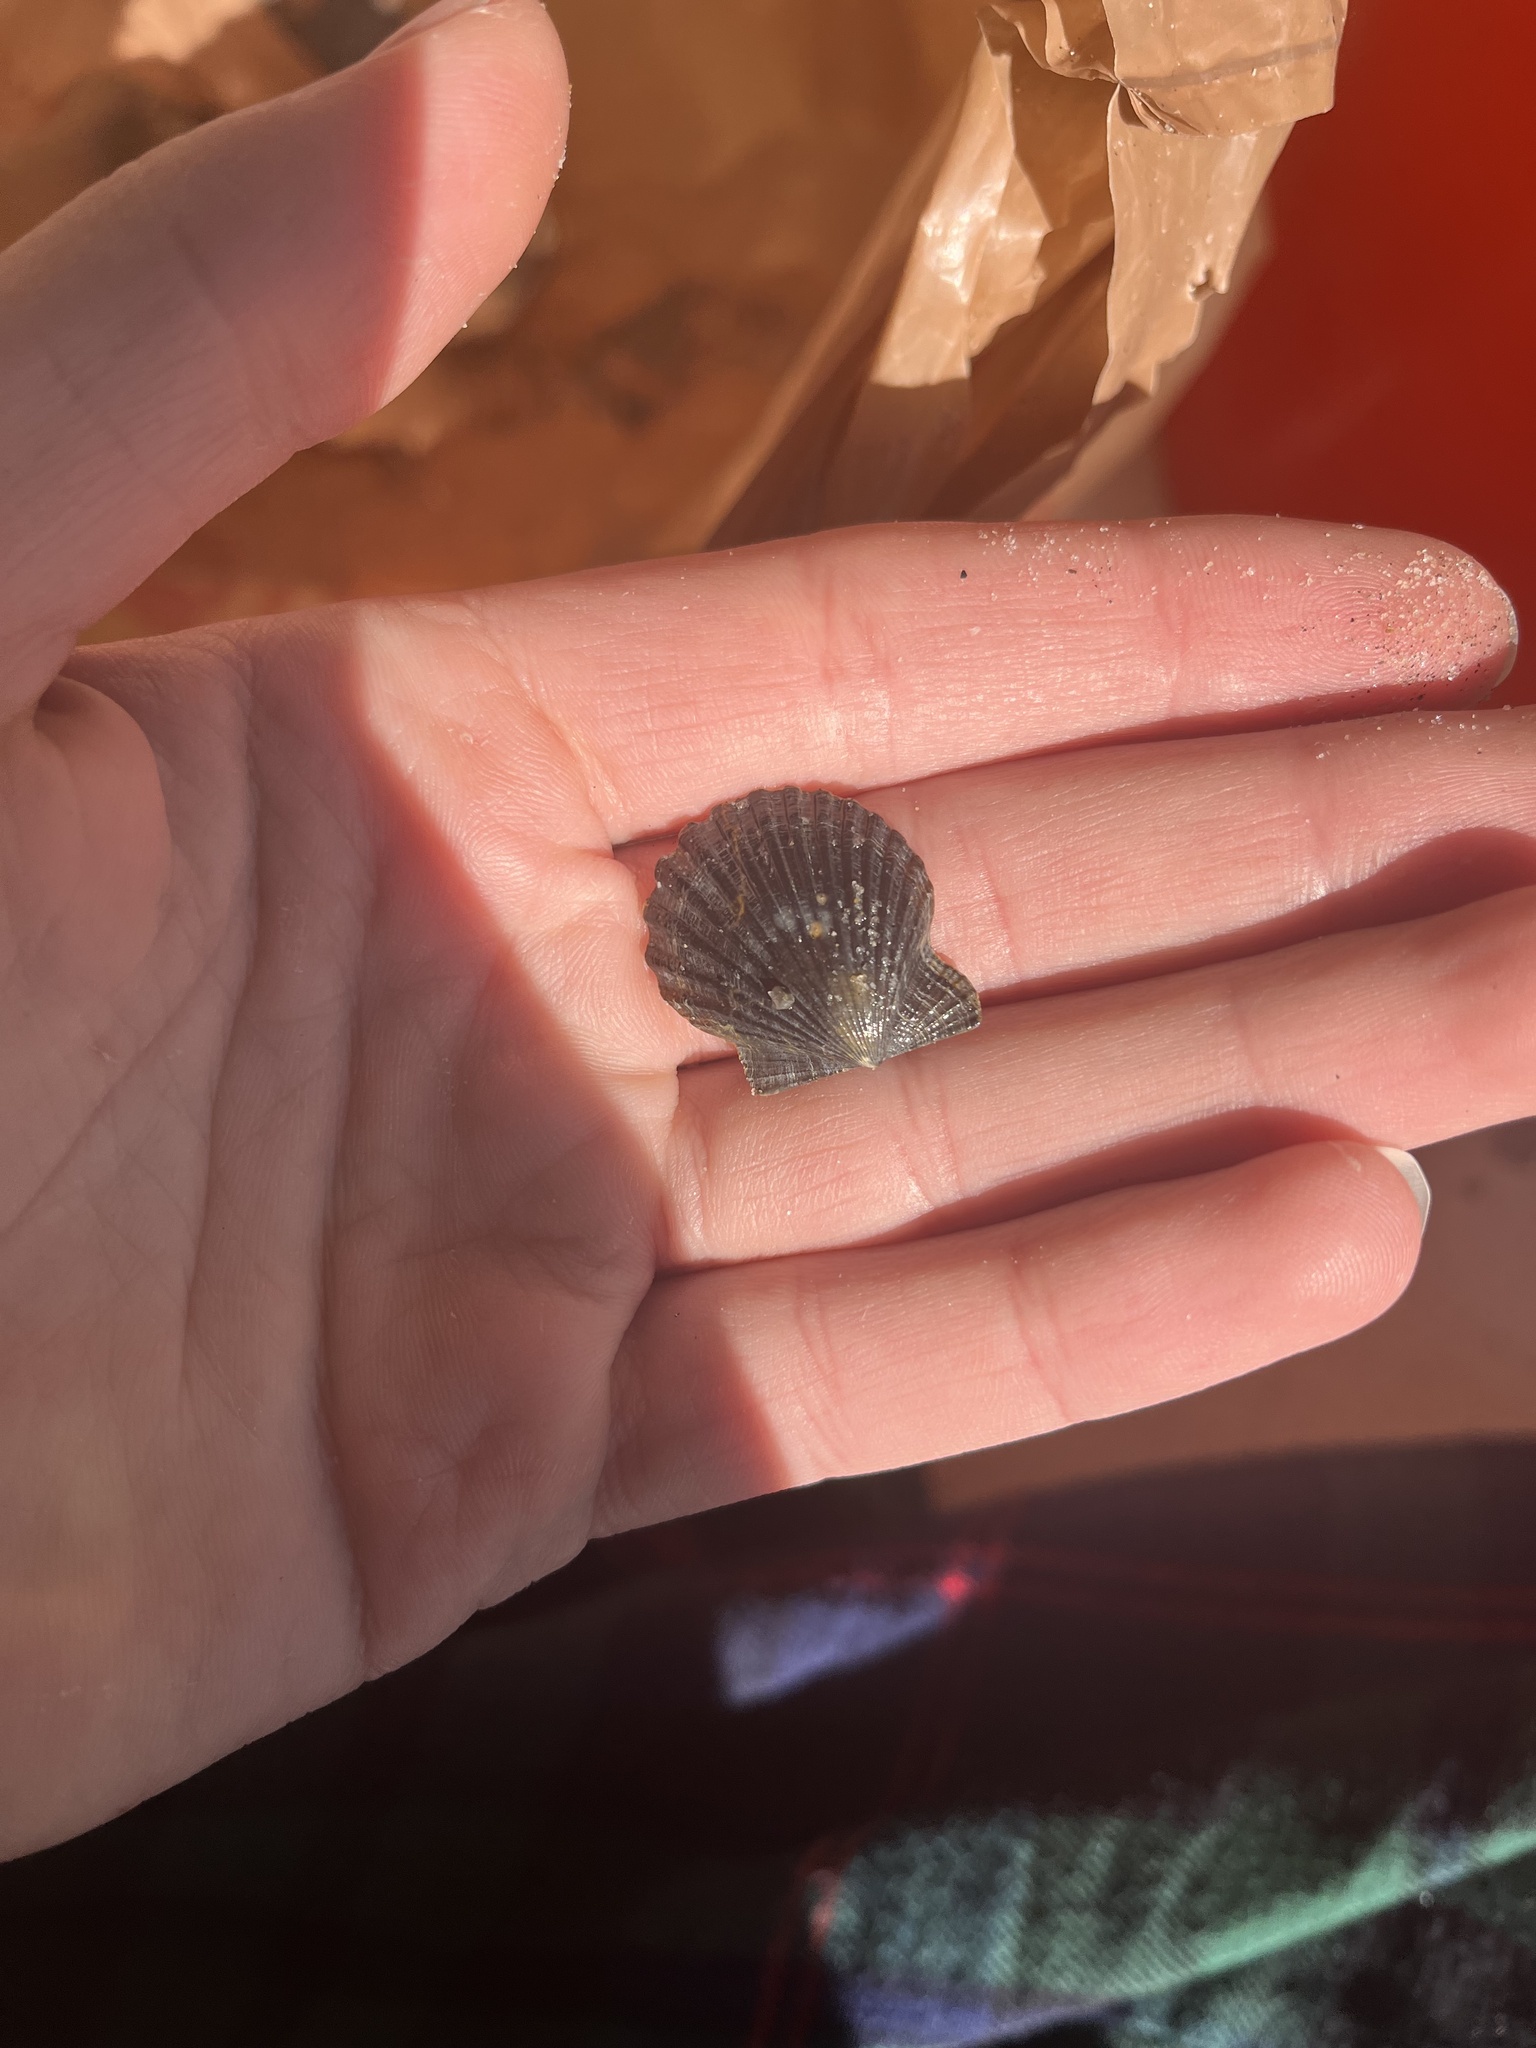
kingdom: Animalia
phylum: Mollusca
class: Bivalvia
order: Pectinida
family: Pectinidae
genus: Leptopecten
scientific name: Leptopecten latiauratus
